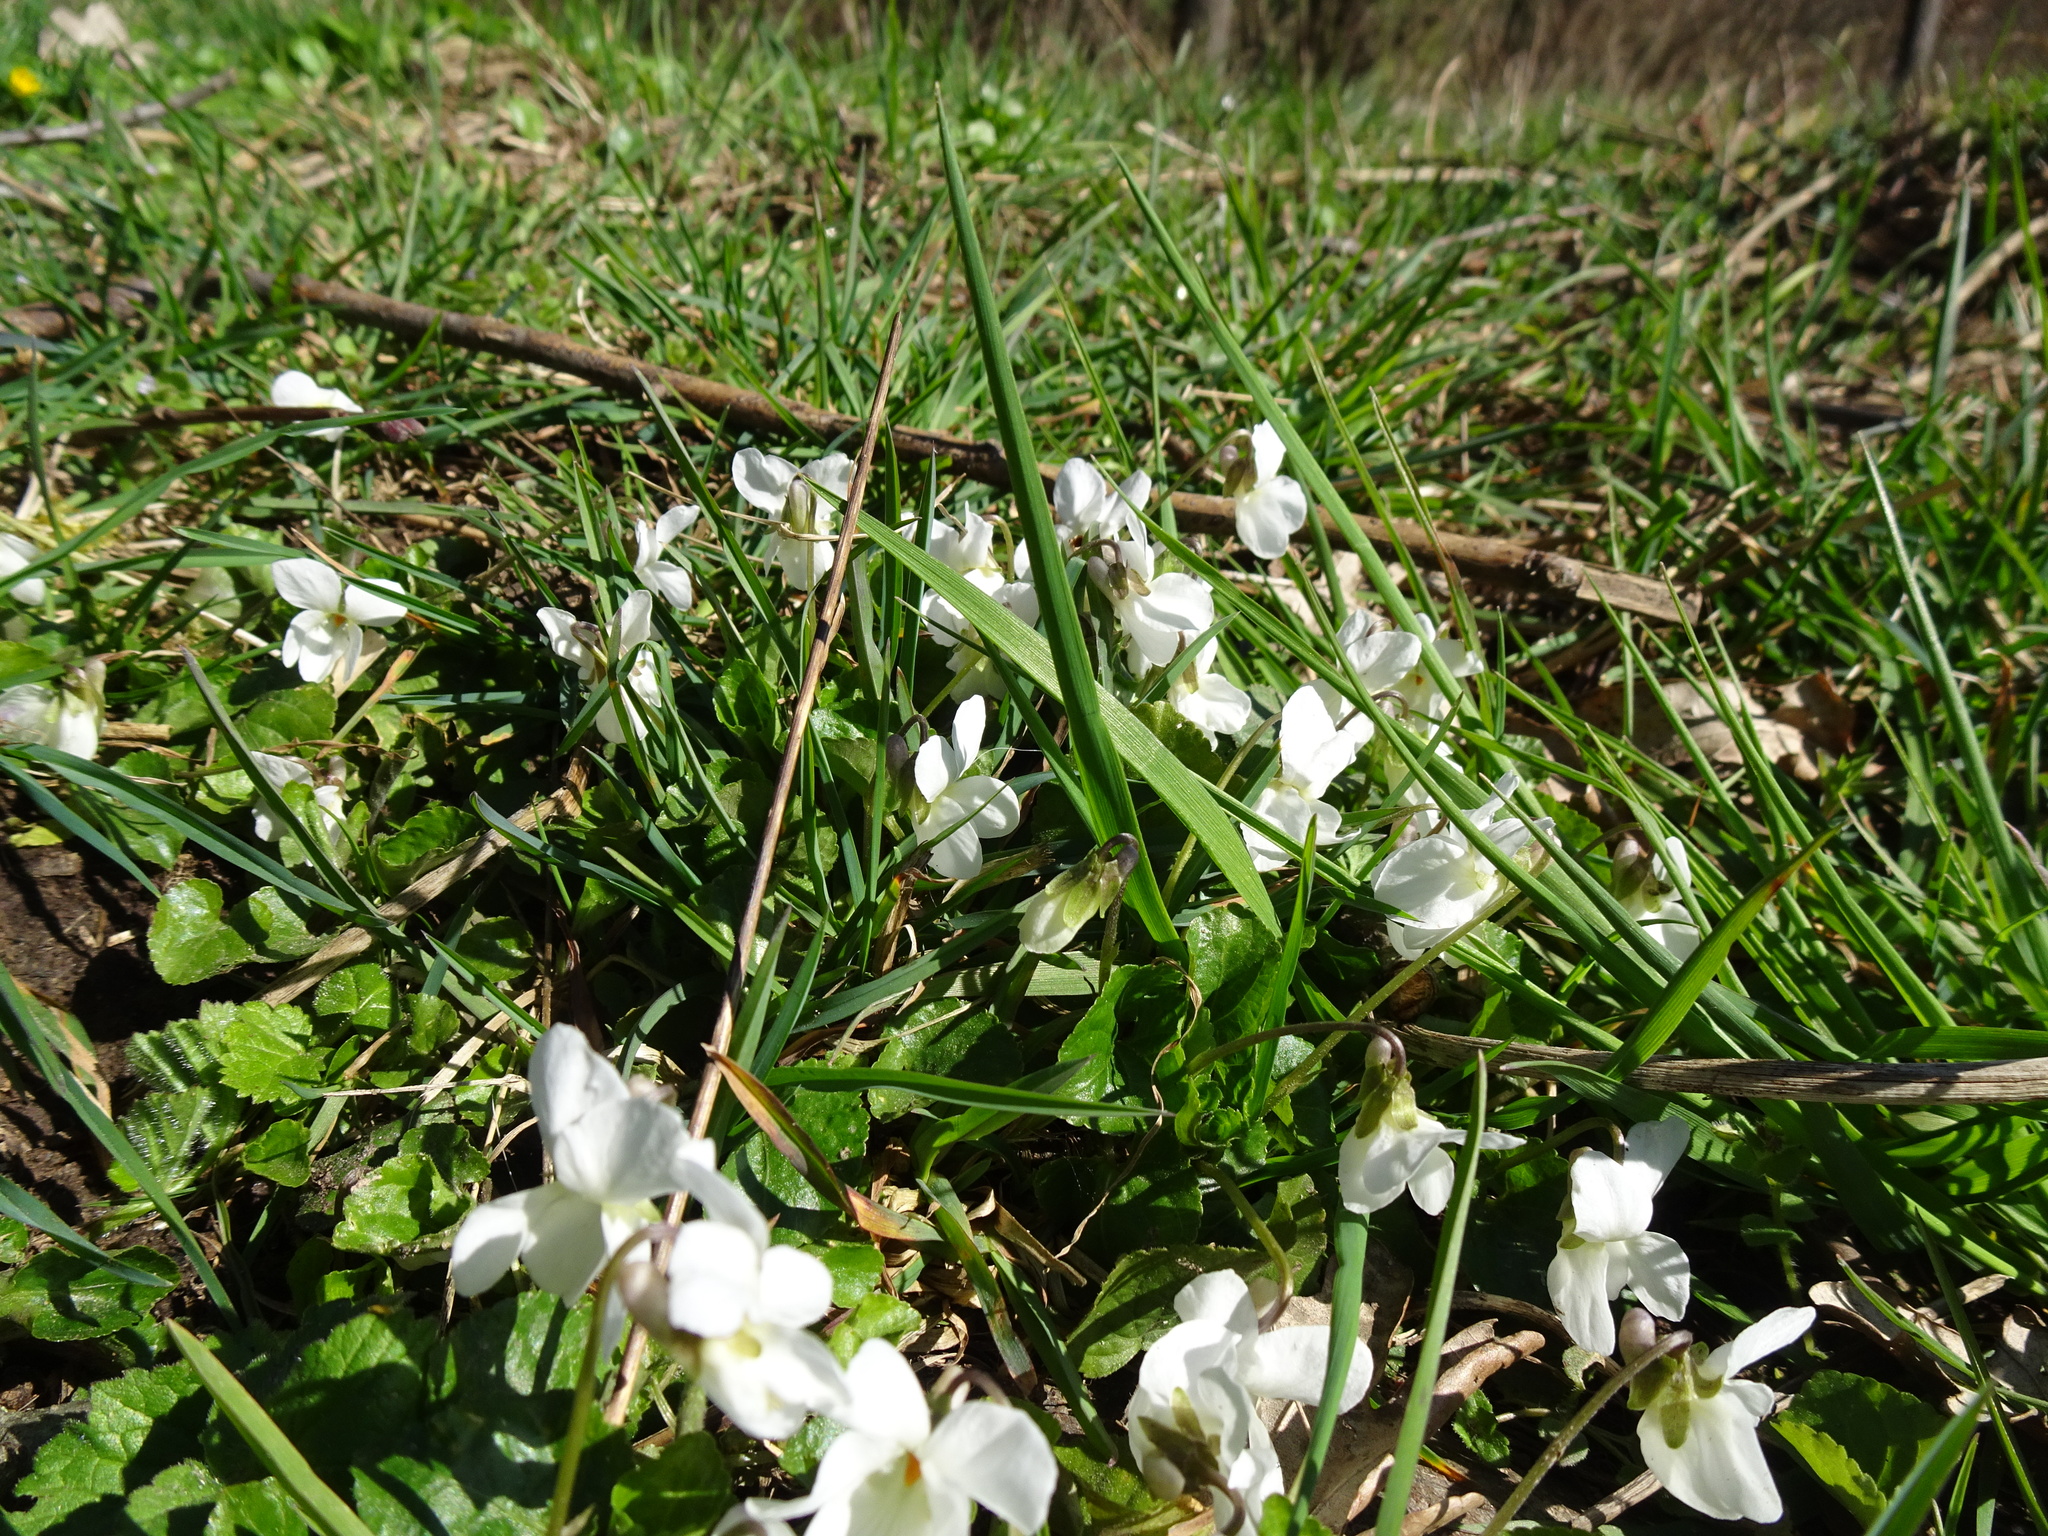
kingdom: Plantae
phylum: Tracheophyta
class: Magnoliopsida
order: Malpighiales
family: Violaceae
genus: Viola
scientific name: Viola odorata
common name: Sweet violet
